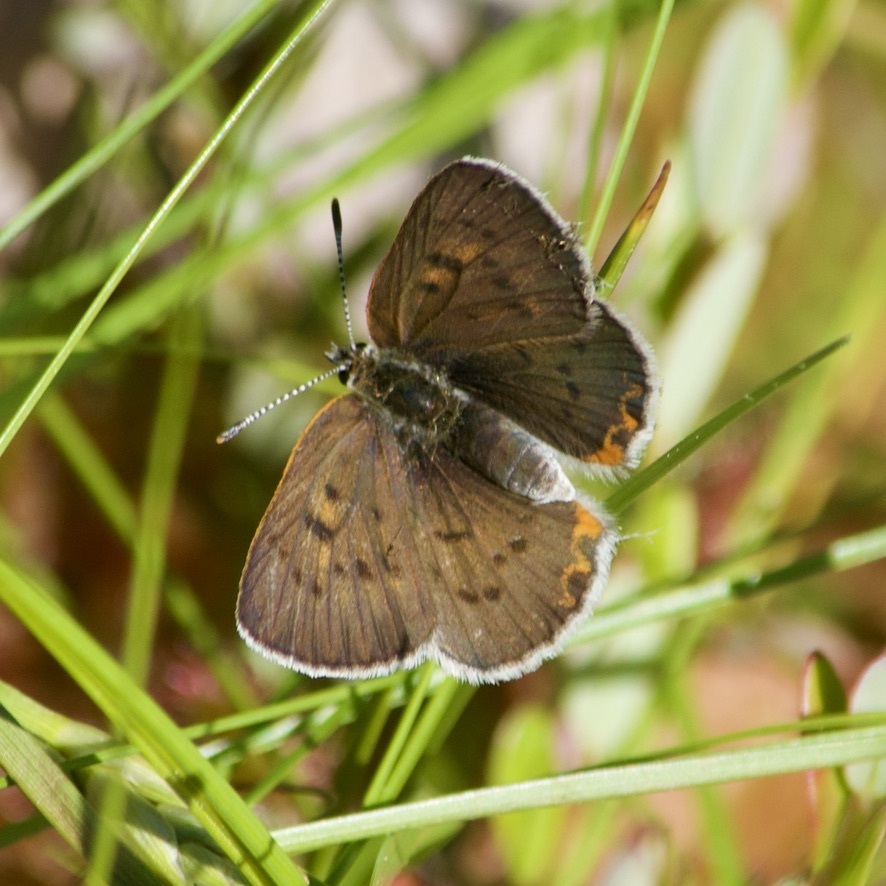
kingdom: Animalia
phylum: Arthropoda
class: Insecta
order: Lepidoptera
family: Lycaenidae
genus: Tharsalea
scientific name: Tharsalea epixanthe
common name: Bog copper
